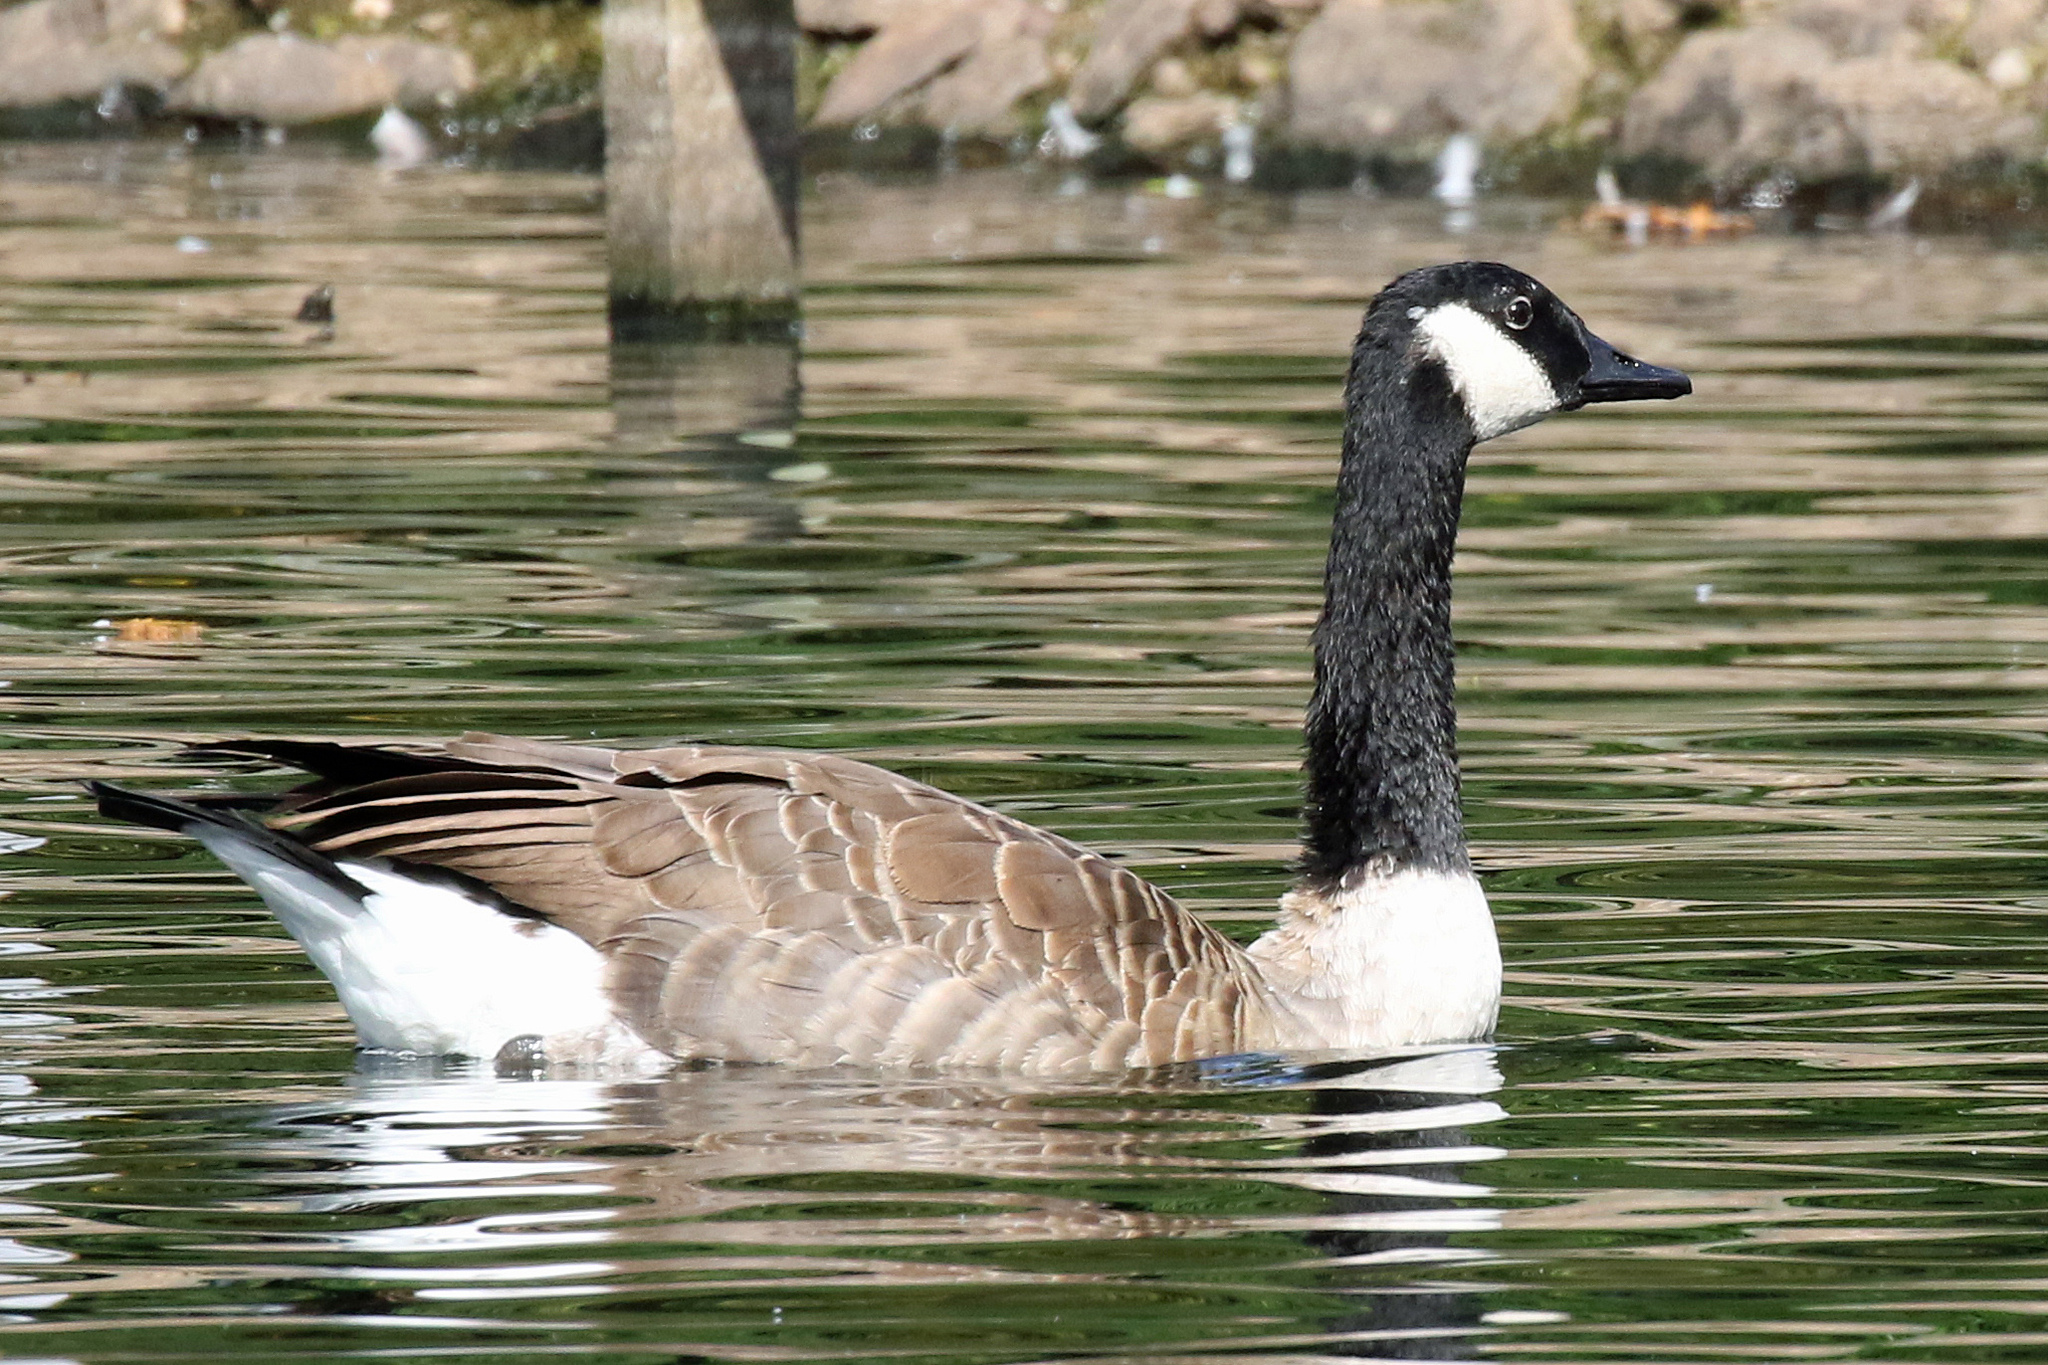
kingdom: Animalia
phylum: Chordata
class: Aves
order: Anseriformes
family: Anatidae
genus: Branta
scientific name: Branta canadensis
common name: Canada goose
